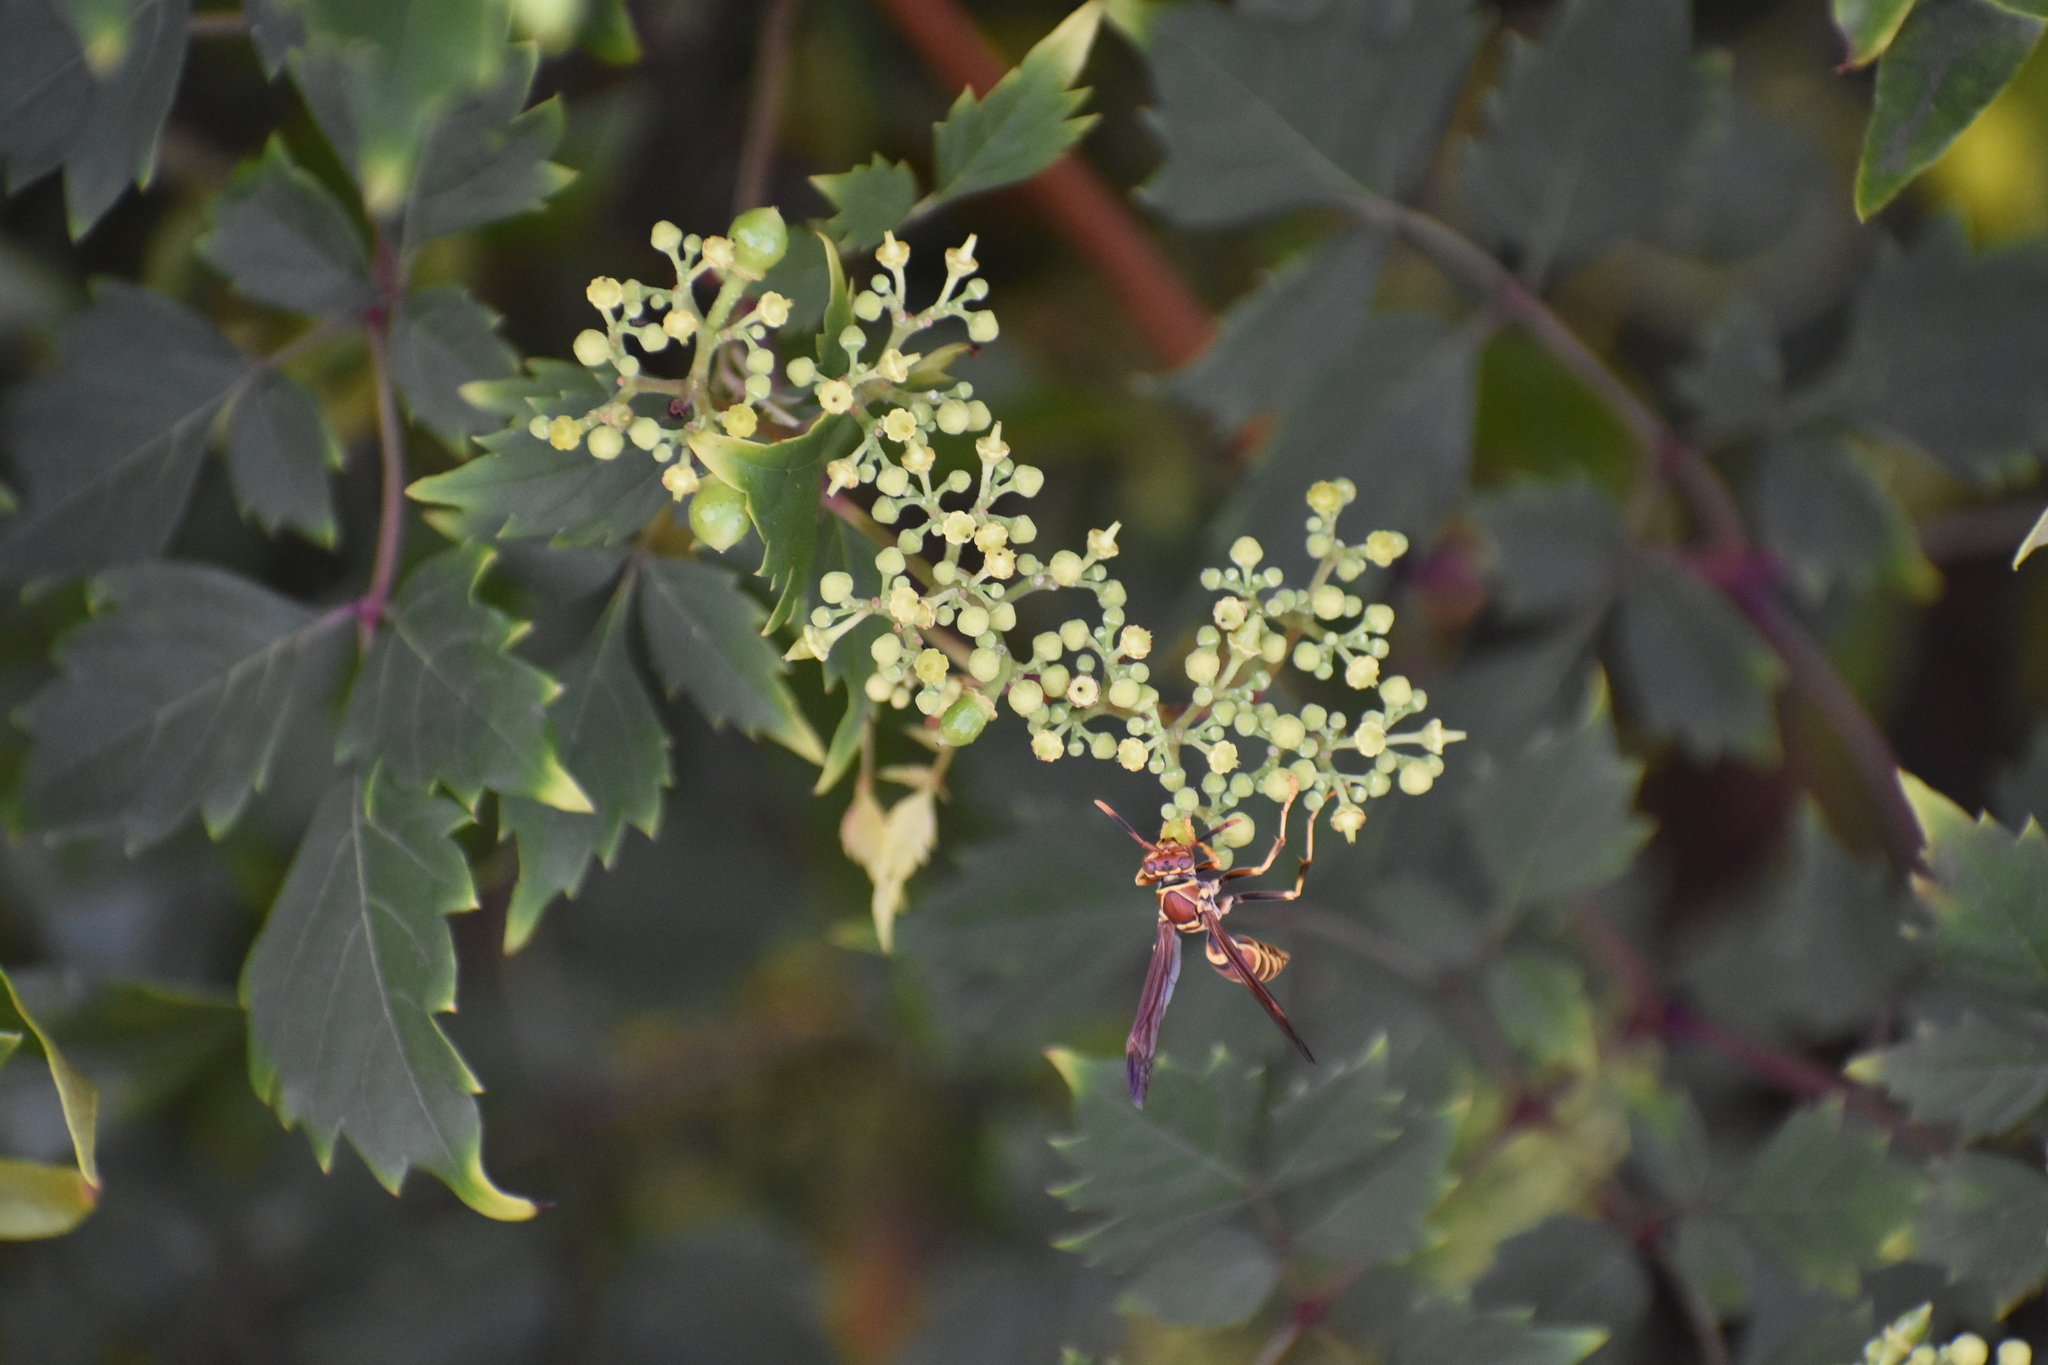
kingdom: Animalia
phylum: Arthropoda
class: Insecta
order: Hymenoptera
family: Eumenidae
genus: Polistes
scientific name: Polistes exclamans
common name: Paper wasp
